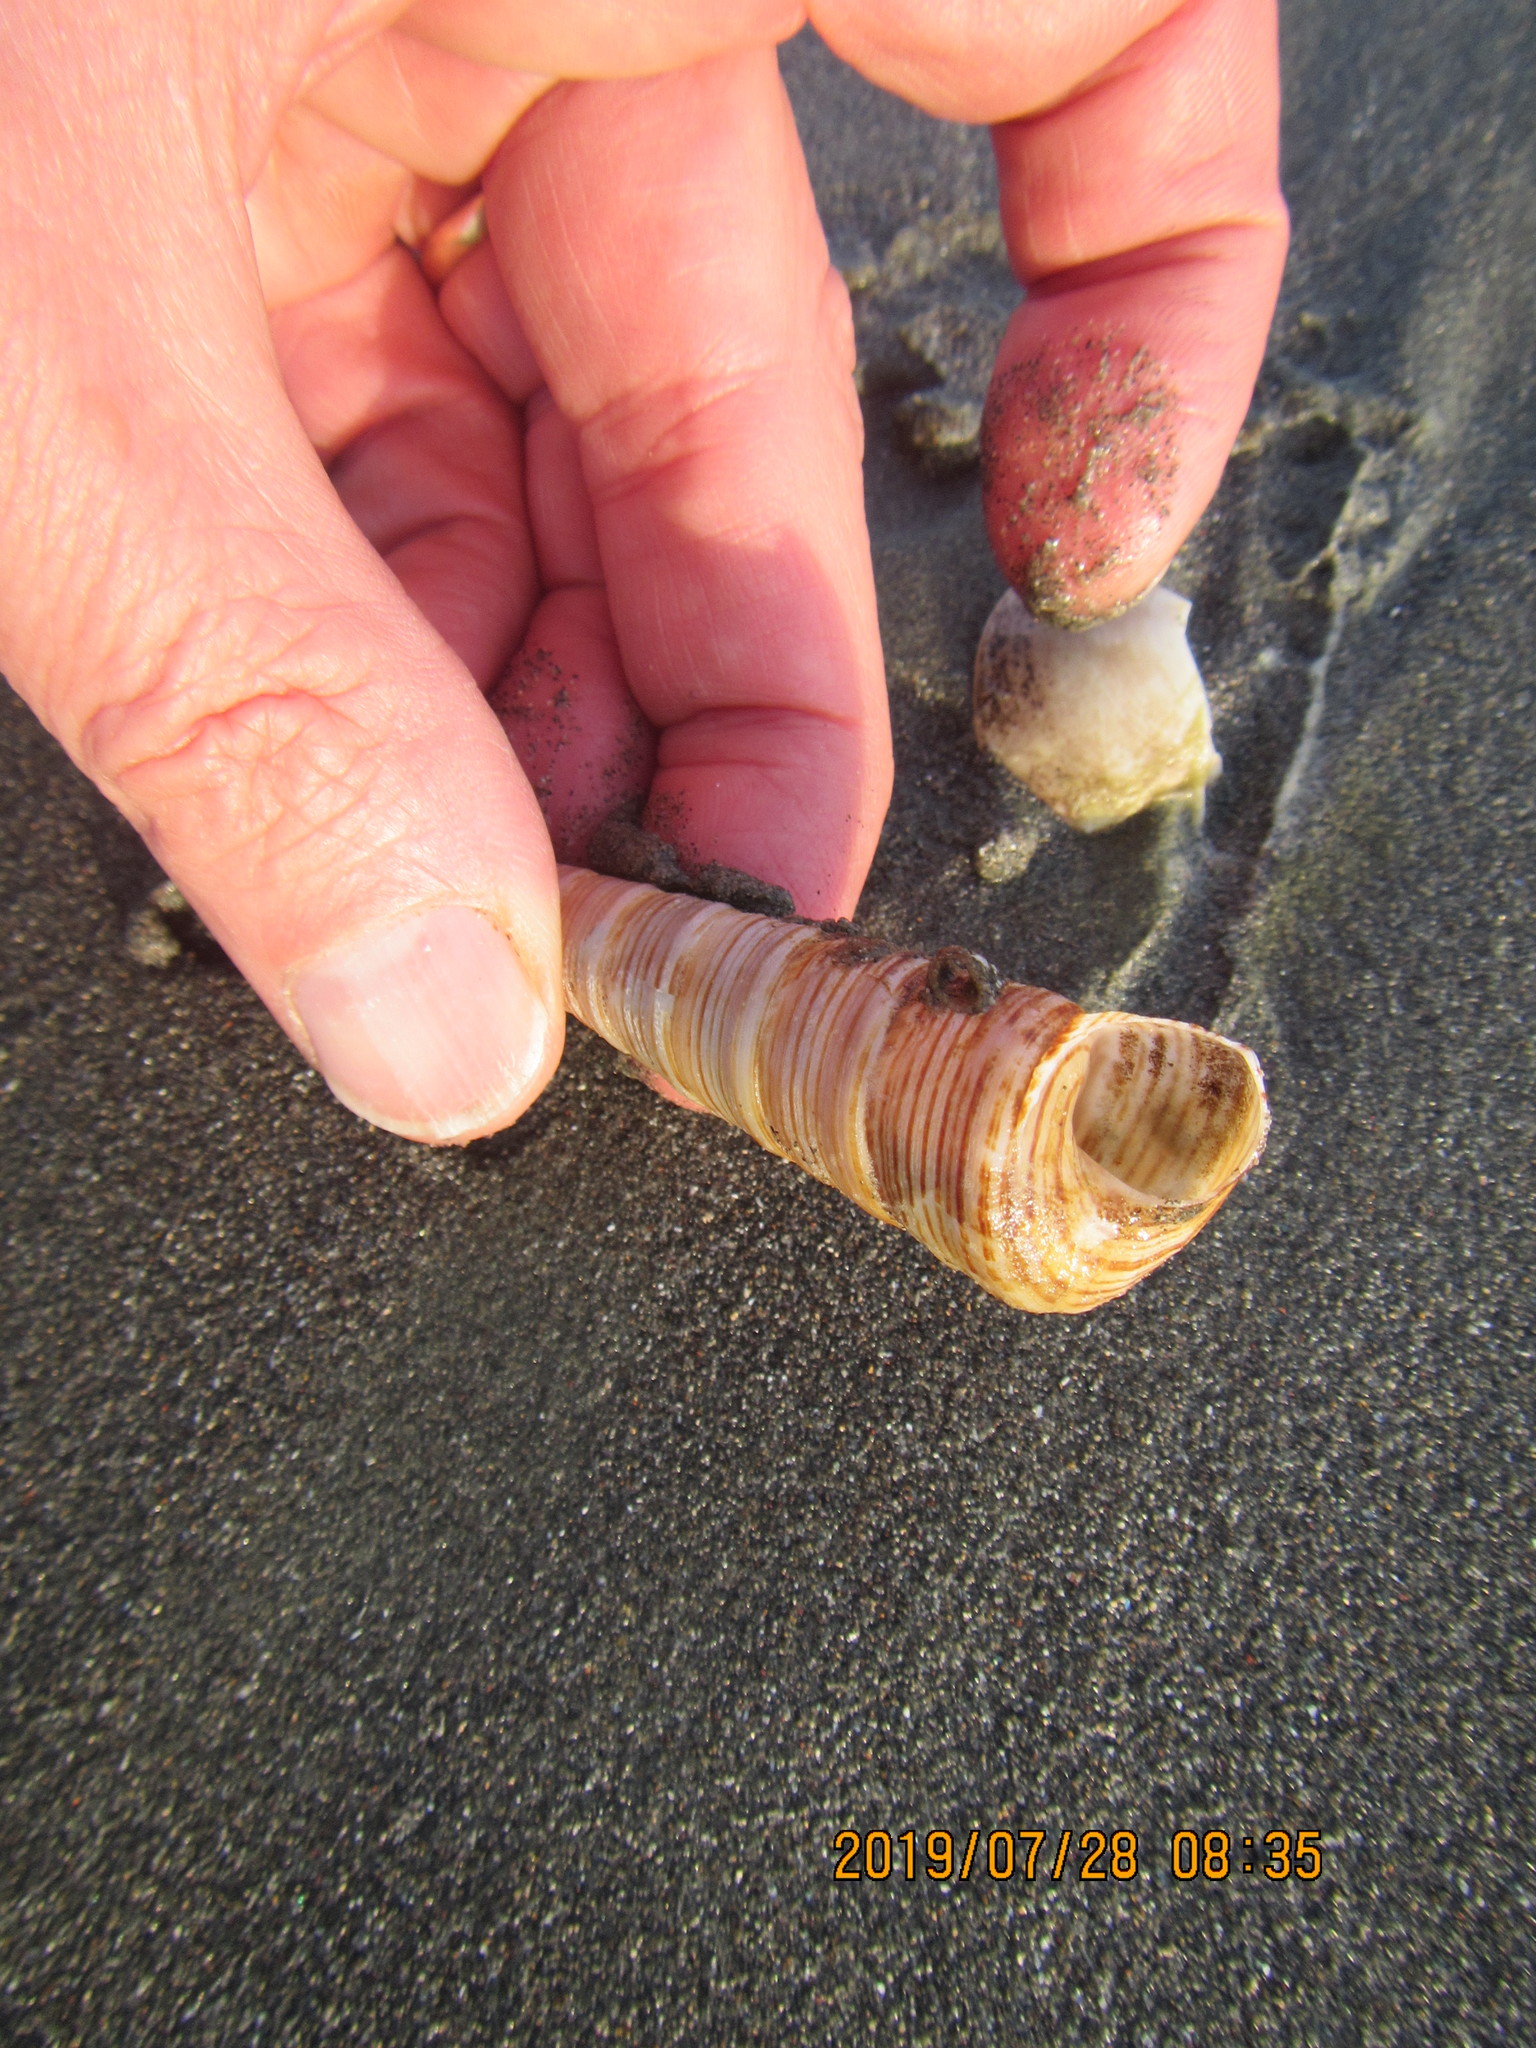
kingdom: Animalia
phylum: Mollusca
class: Gastropoda
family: Turritellidae
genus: Zeacolpus
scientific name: Zeacolpus vittatus
